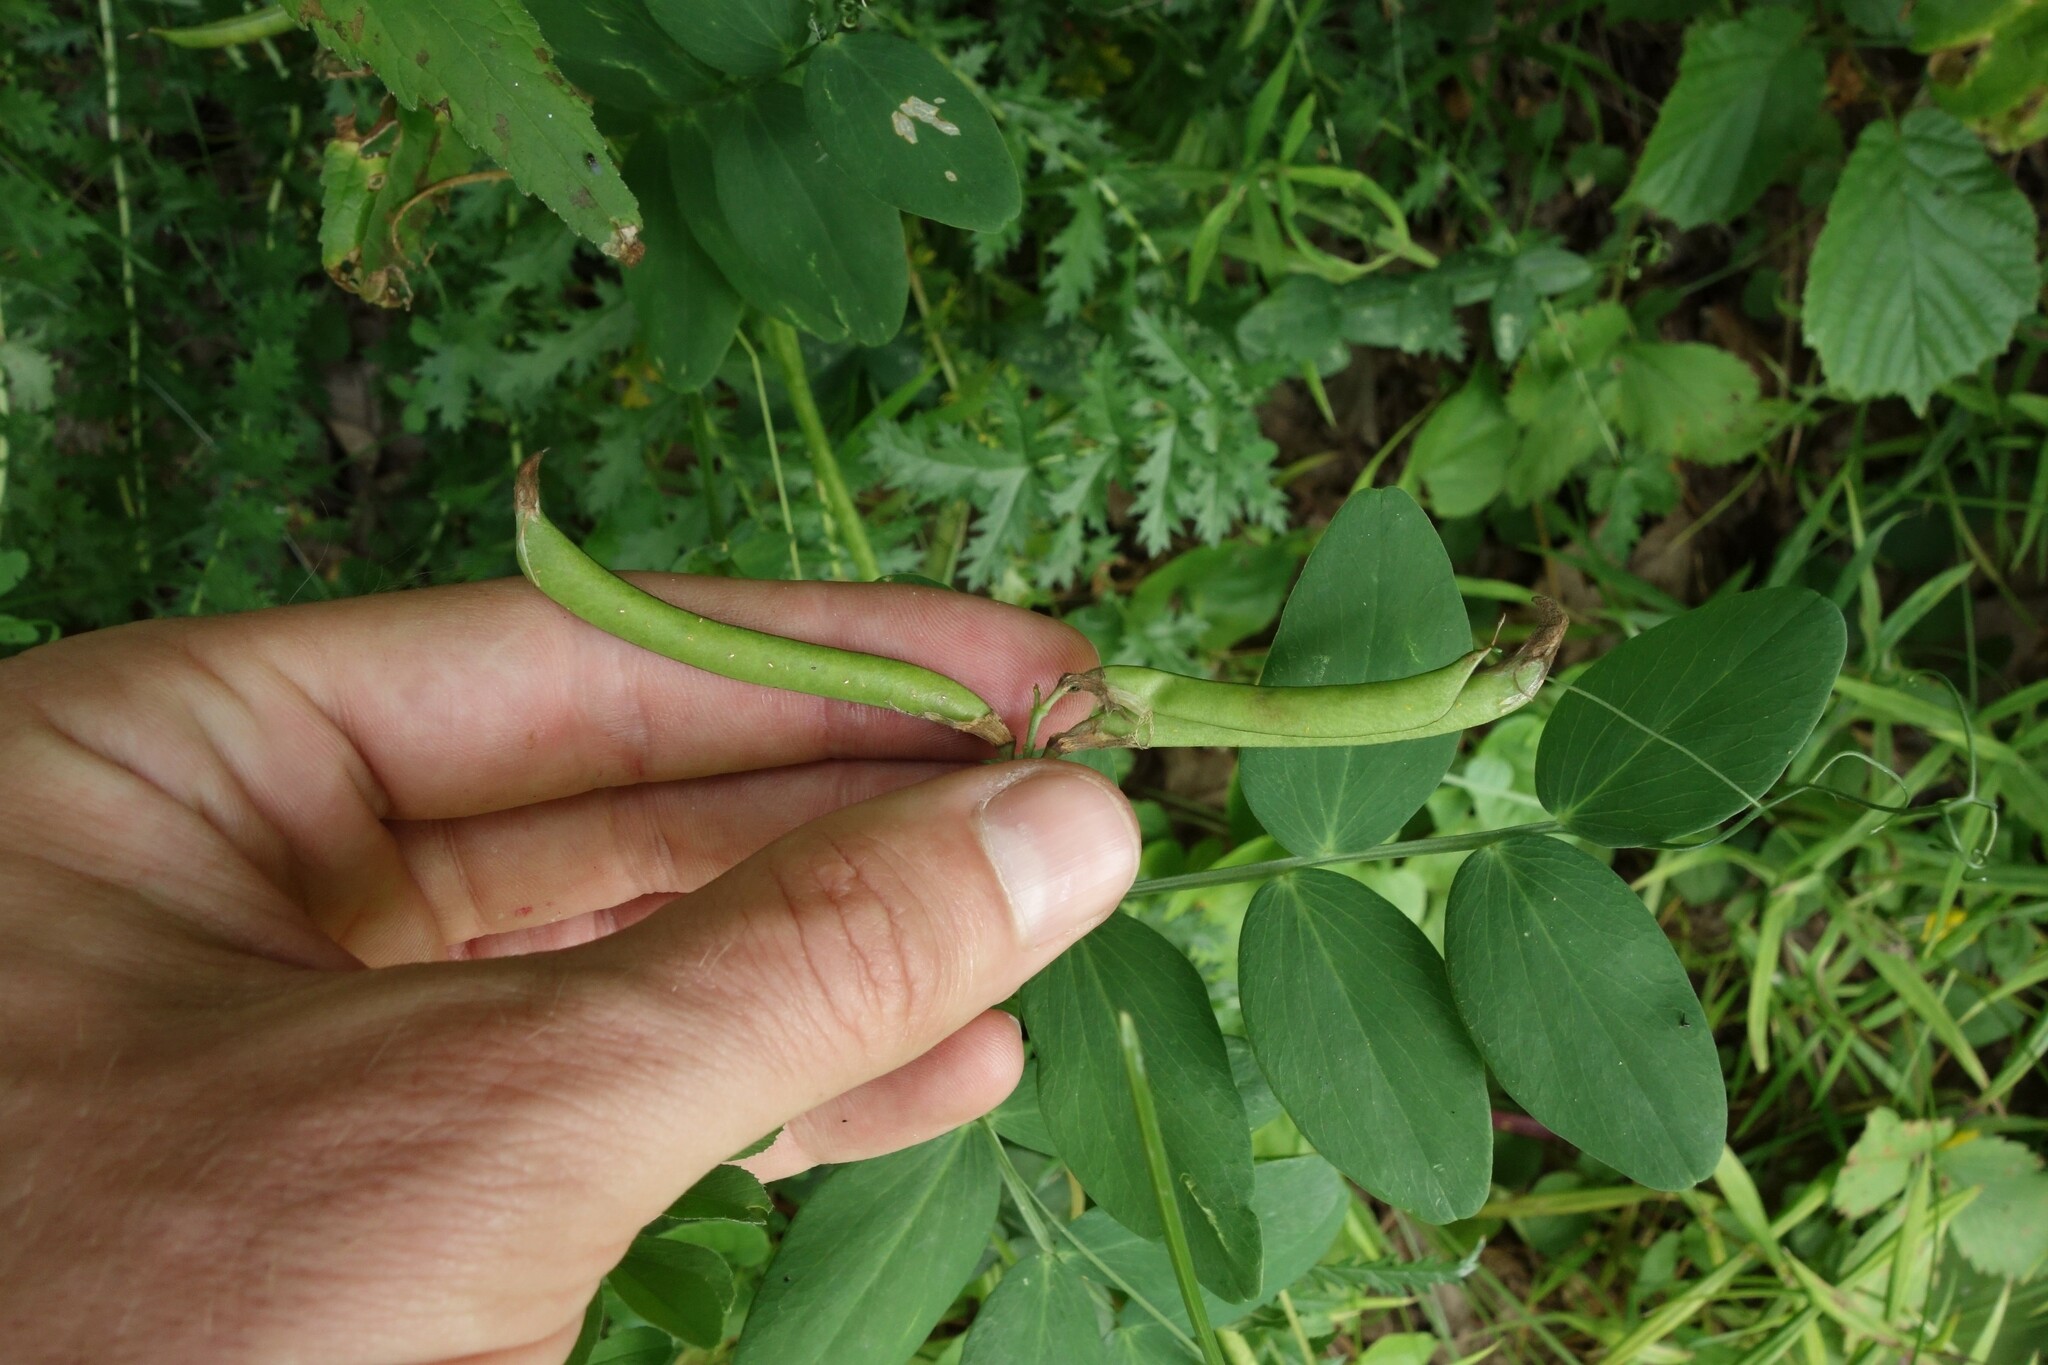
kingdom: Plantae
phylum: Tracheophyta
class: Magnoliopsida
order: Fabales
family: Fabaceae
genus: Lathyrus
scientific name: Lathyrus pisiformis
